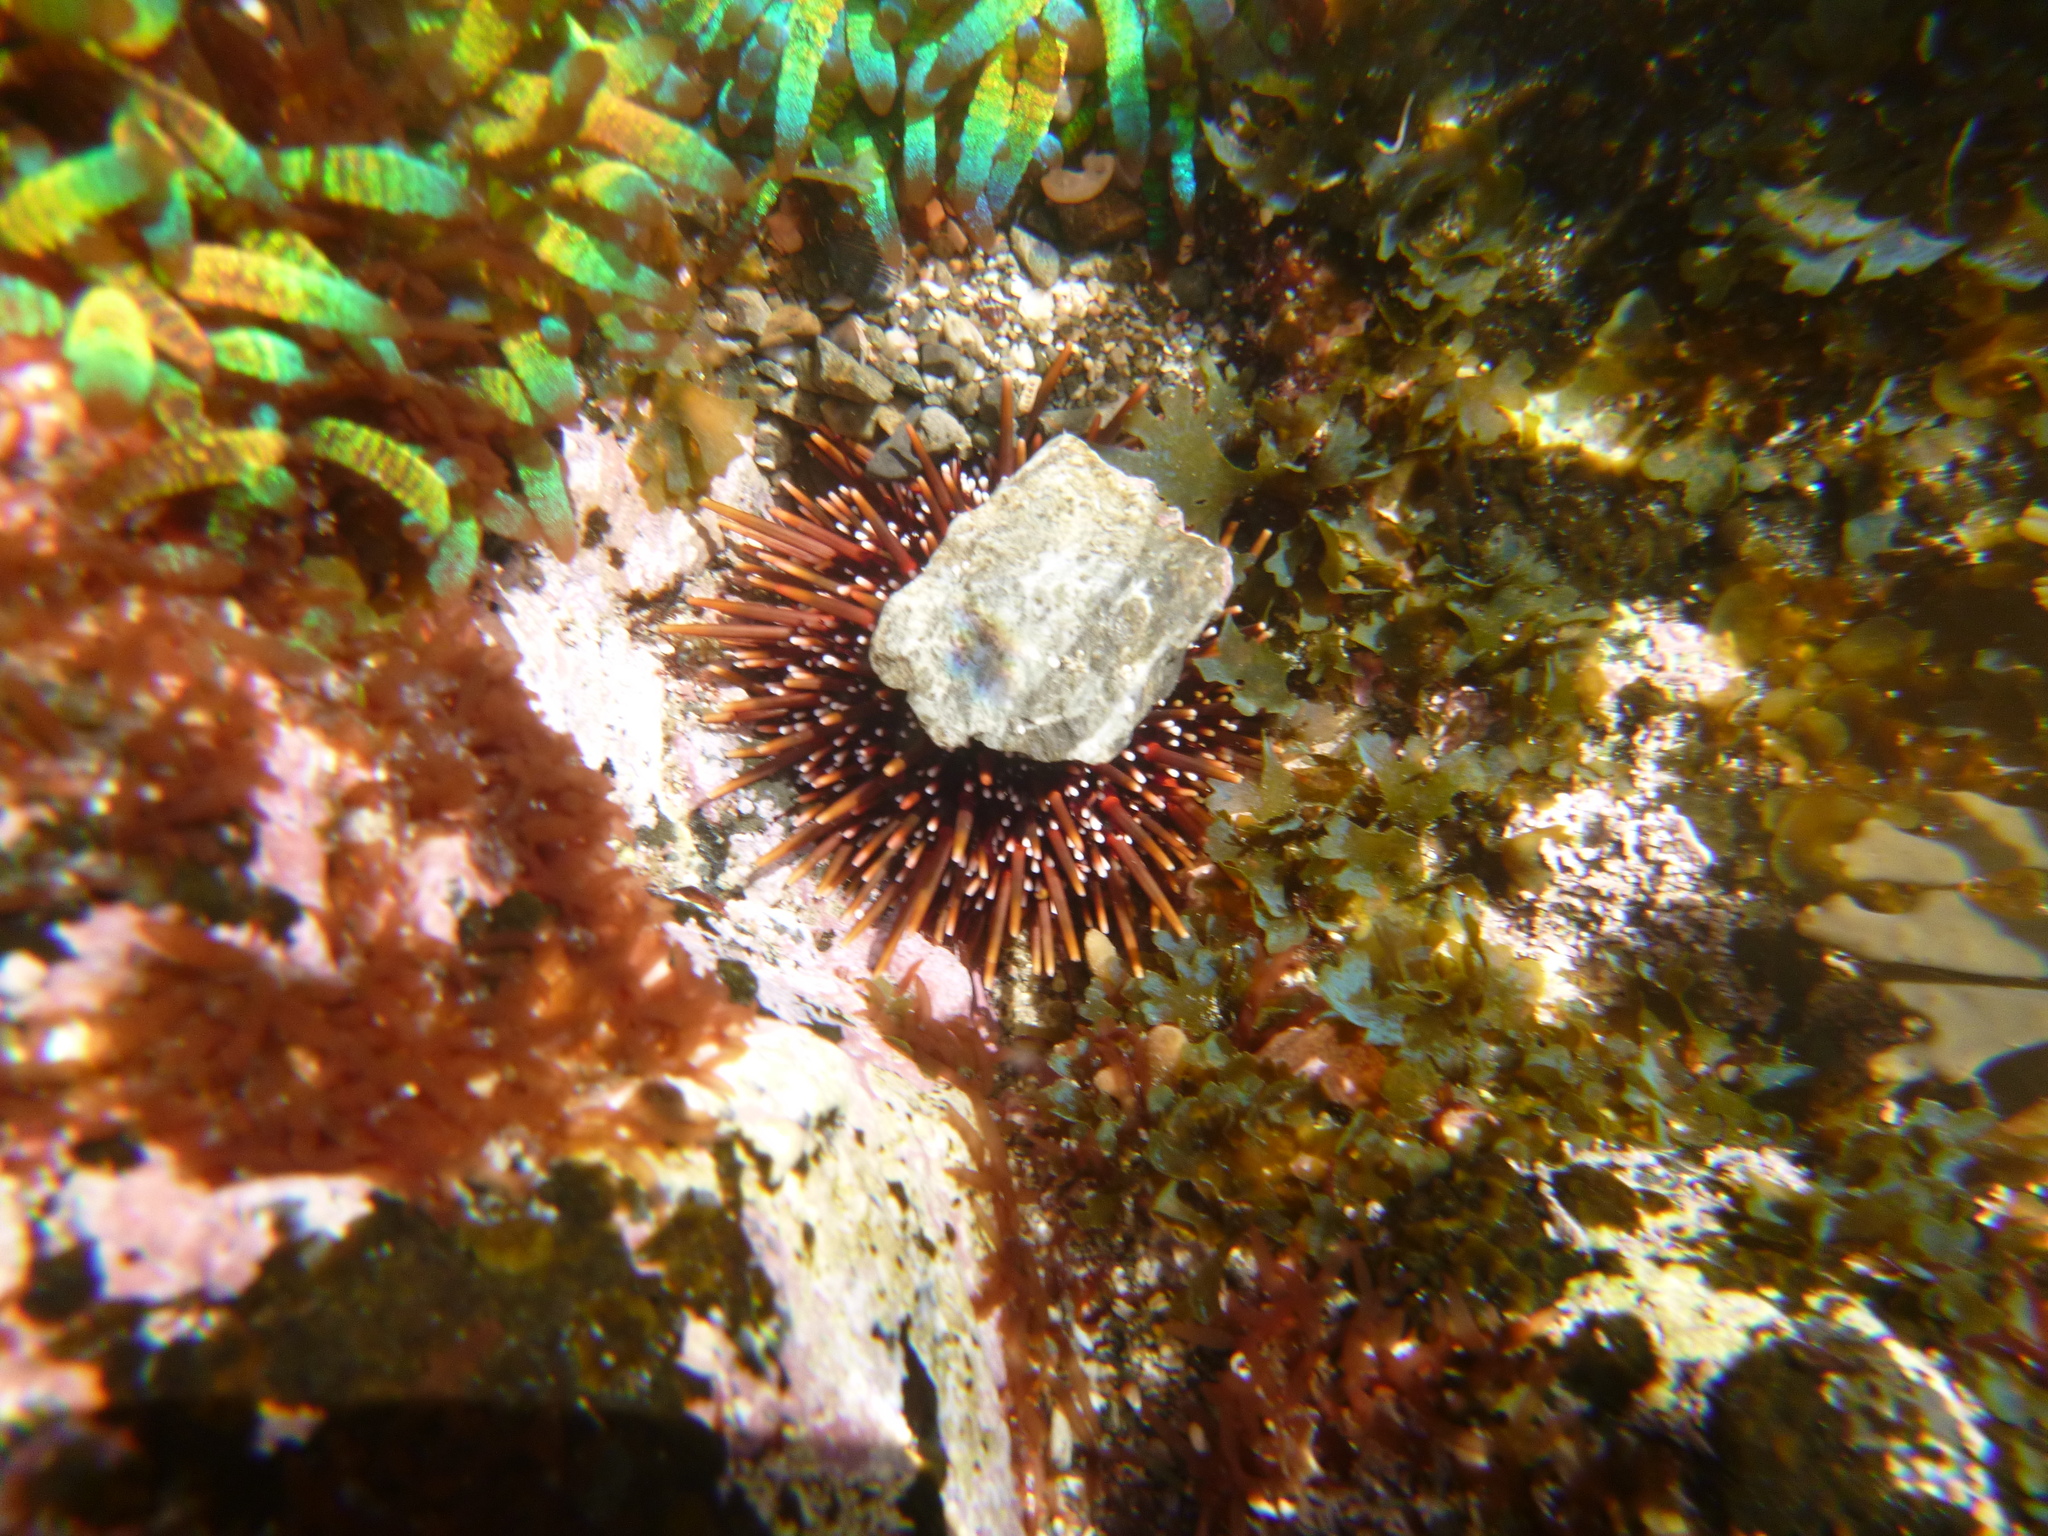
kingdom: Animalia
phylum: Echinodermata
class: Echinoidea
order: Camarodonta
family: Echinometridae
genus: Evechinus
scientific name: Evechinus chloroticus
